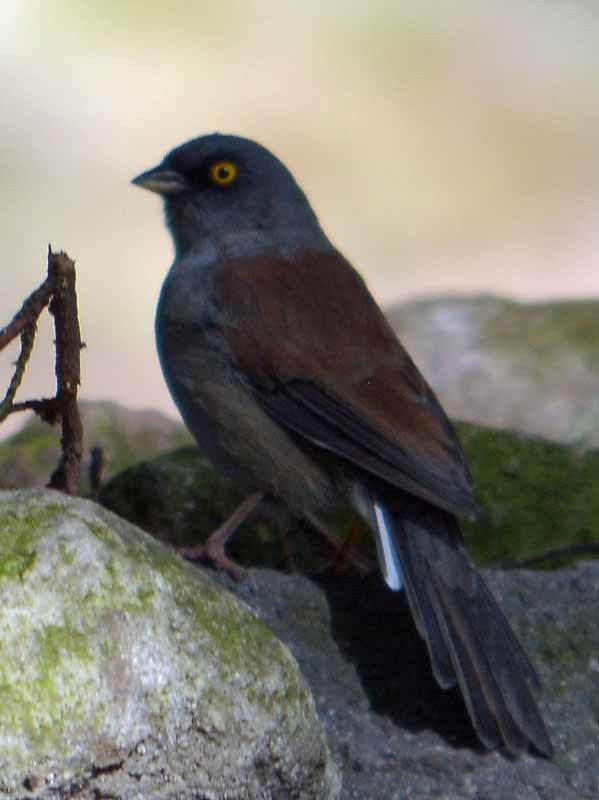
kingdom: Animalia
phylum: Chordata
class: Aves
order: Passeriformes
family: Passerellidae
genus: Junco
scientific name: Junco phaeonotus
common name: Yellow-eyed junco
